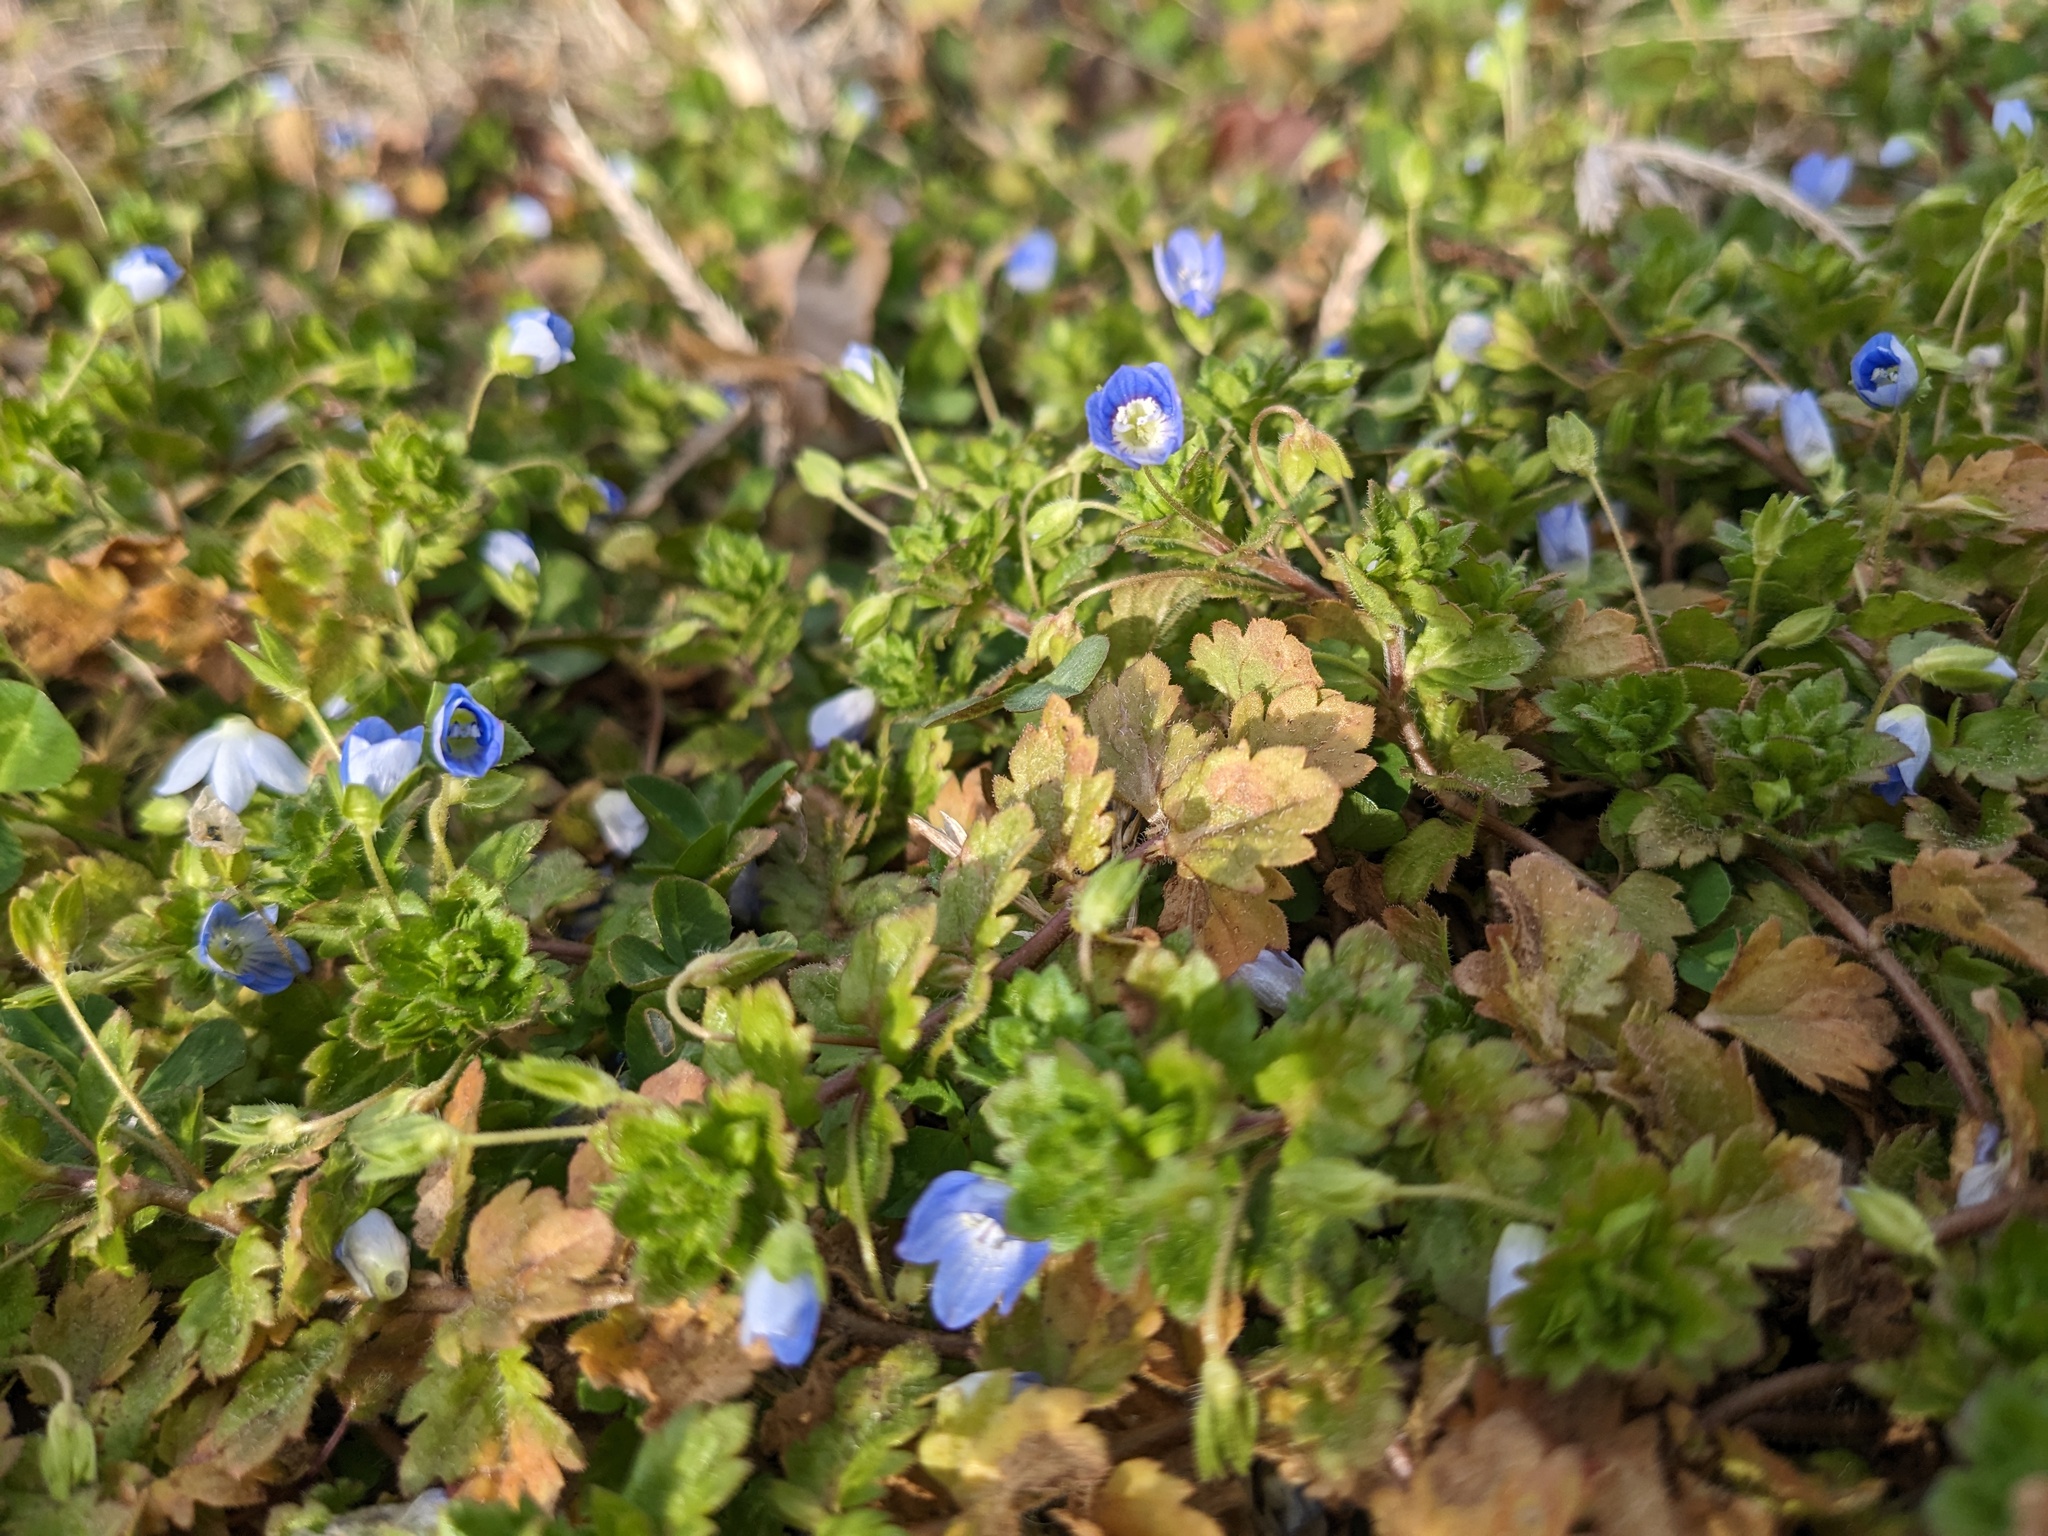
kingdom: Plantae
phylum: Tracheophyta
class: Magnoliopsida
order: Lamiales
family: Plantaginaceae
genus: Veronica
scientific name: Veronica persica
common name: Common field-speedwell
